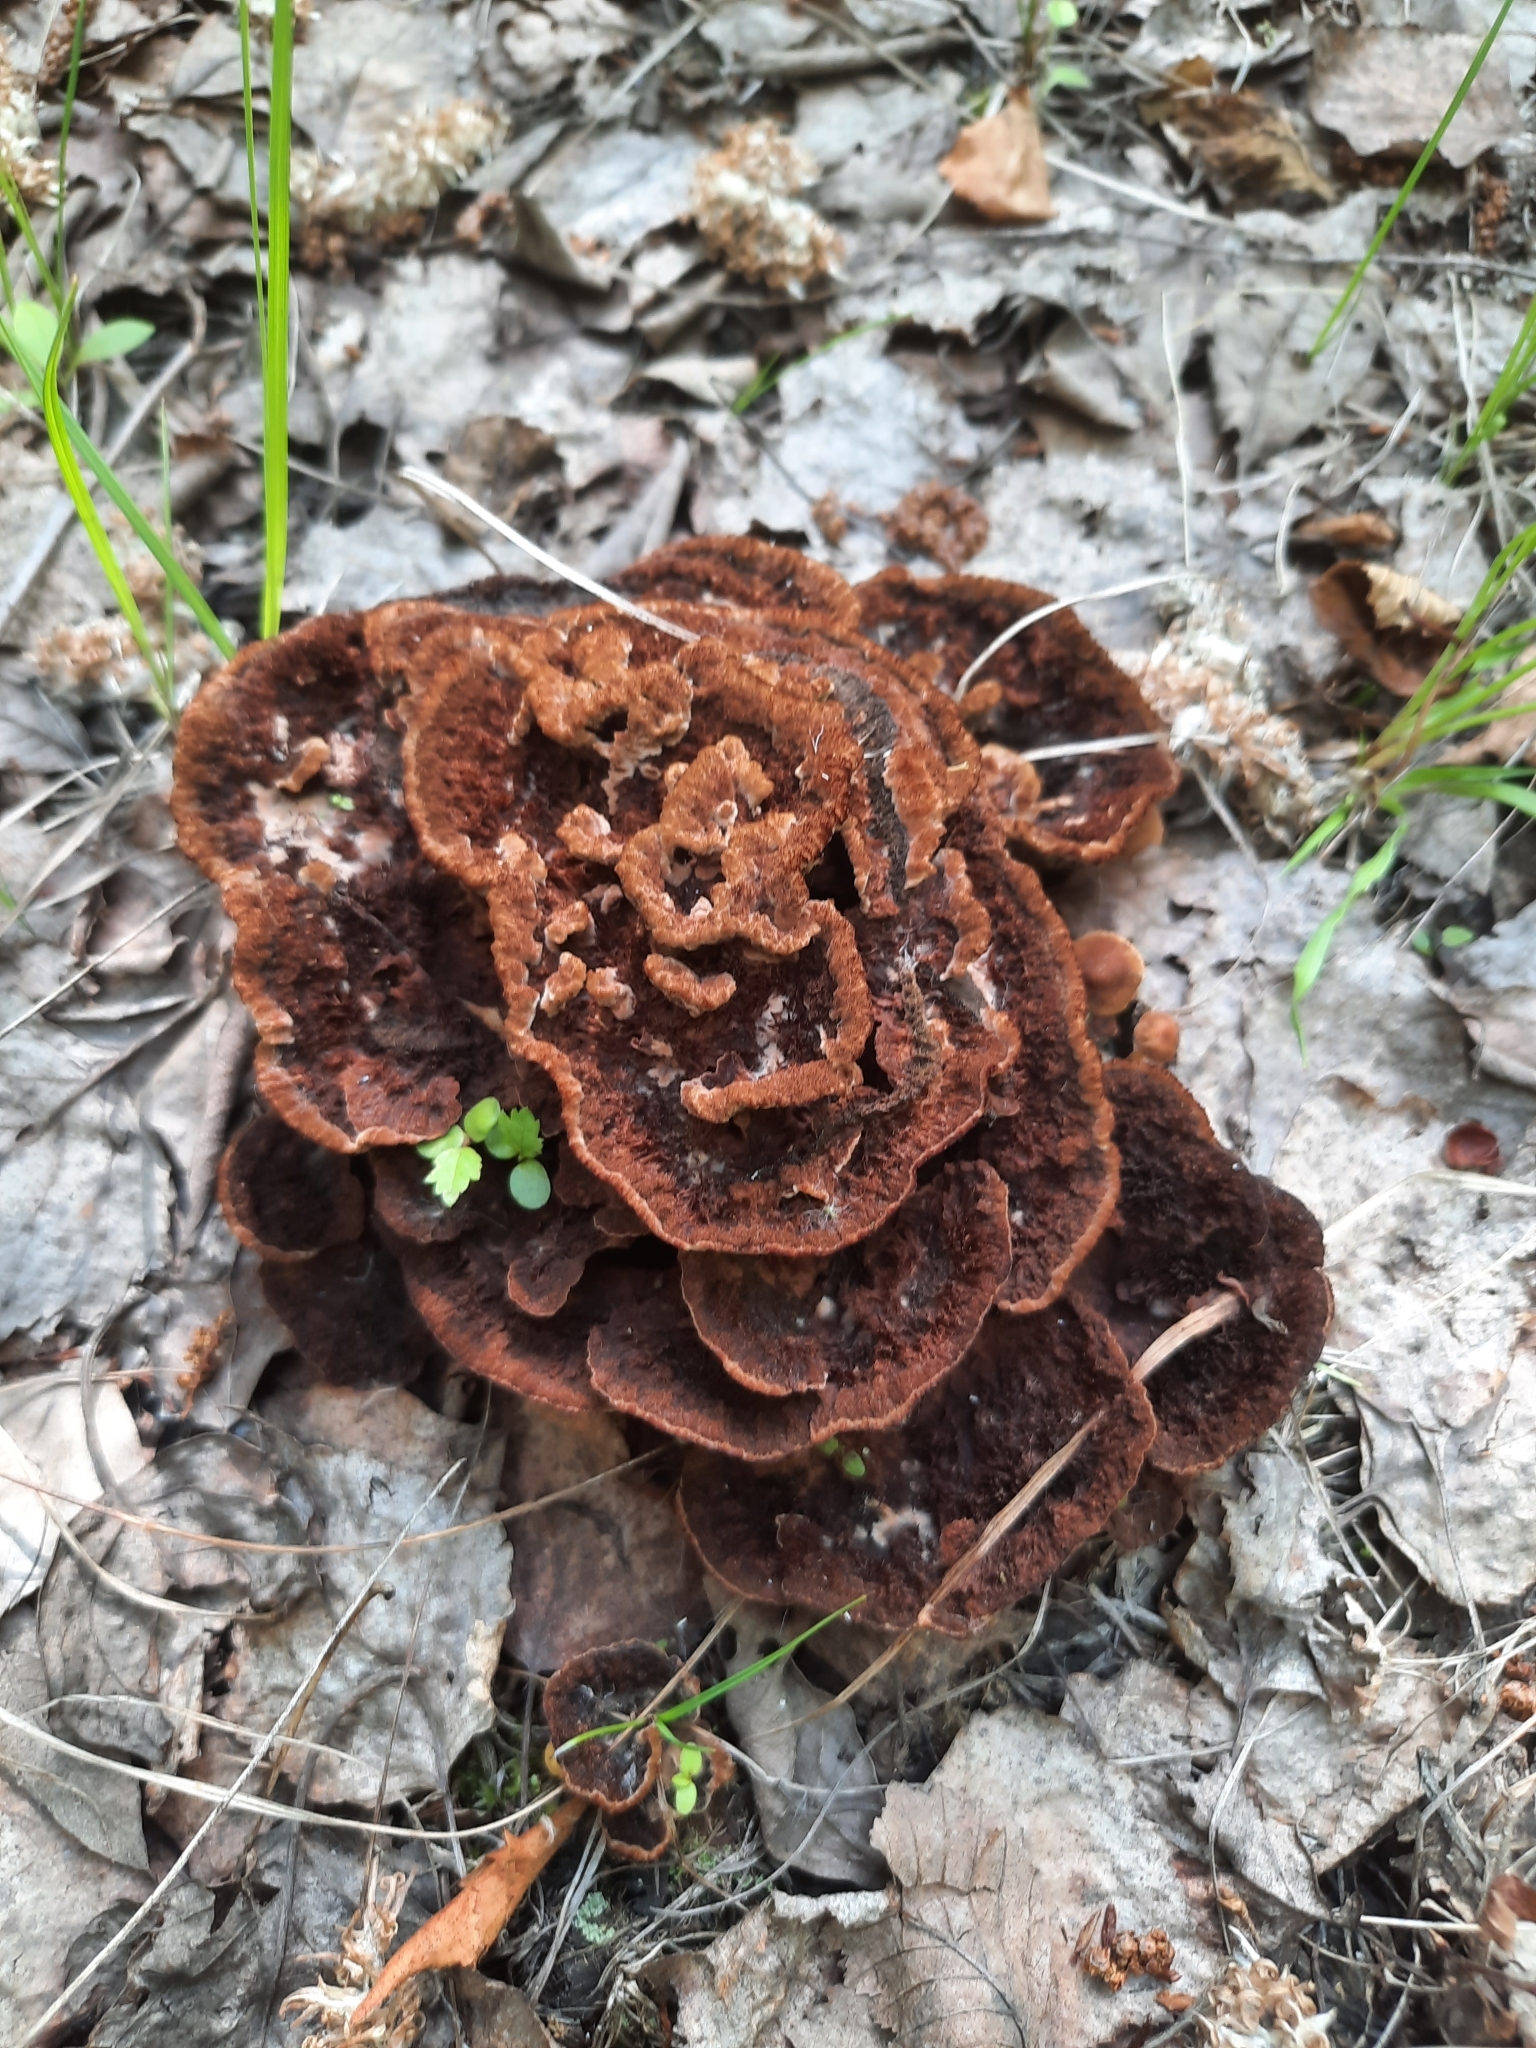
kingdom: Fungi
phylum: Basidiomycota
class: Agaricomycetes
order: Thelephorales
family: Thelephoraceae
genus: Thelephora
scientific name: Thelephora terrestris
